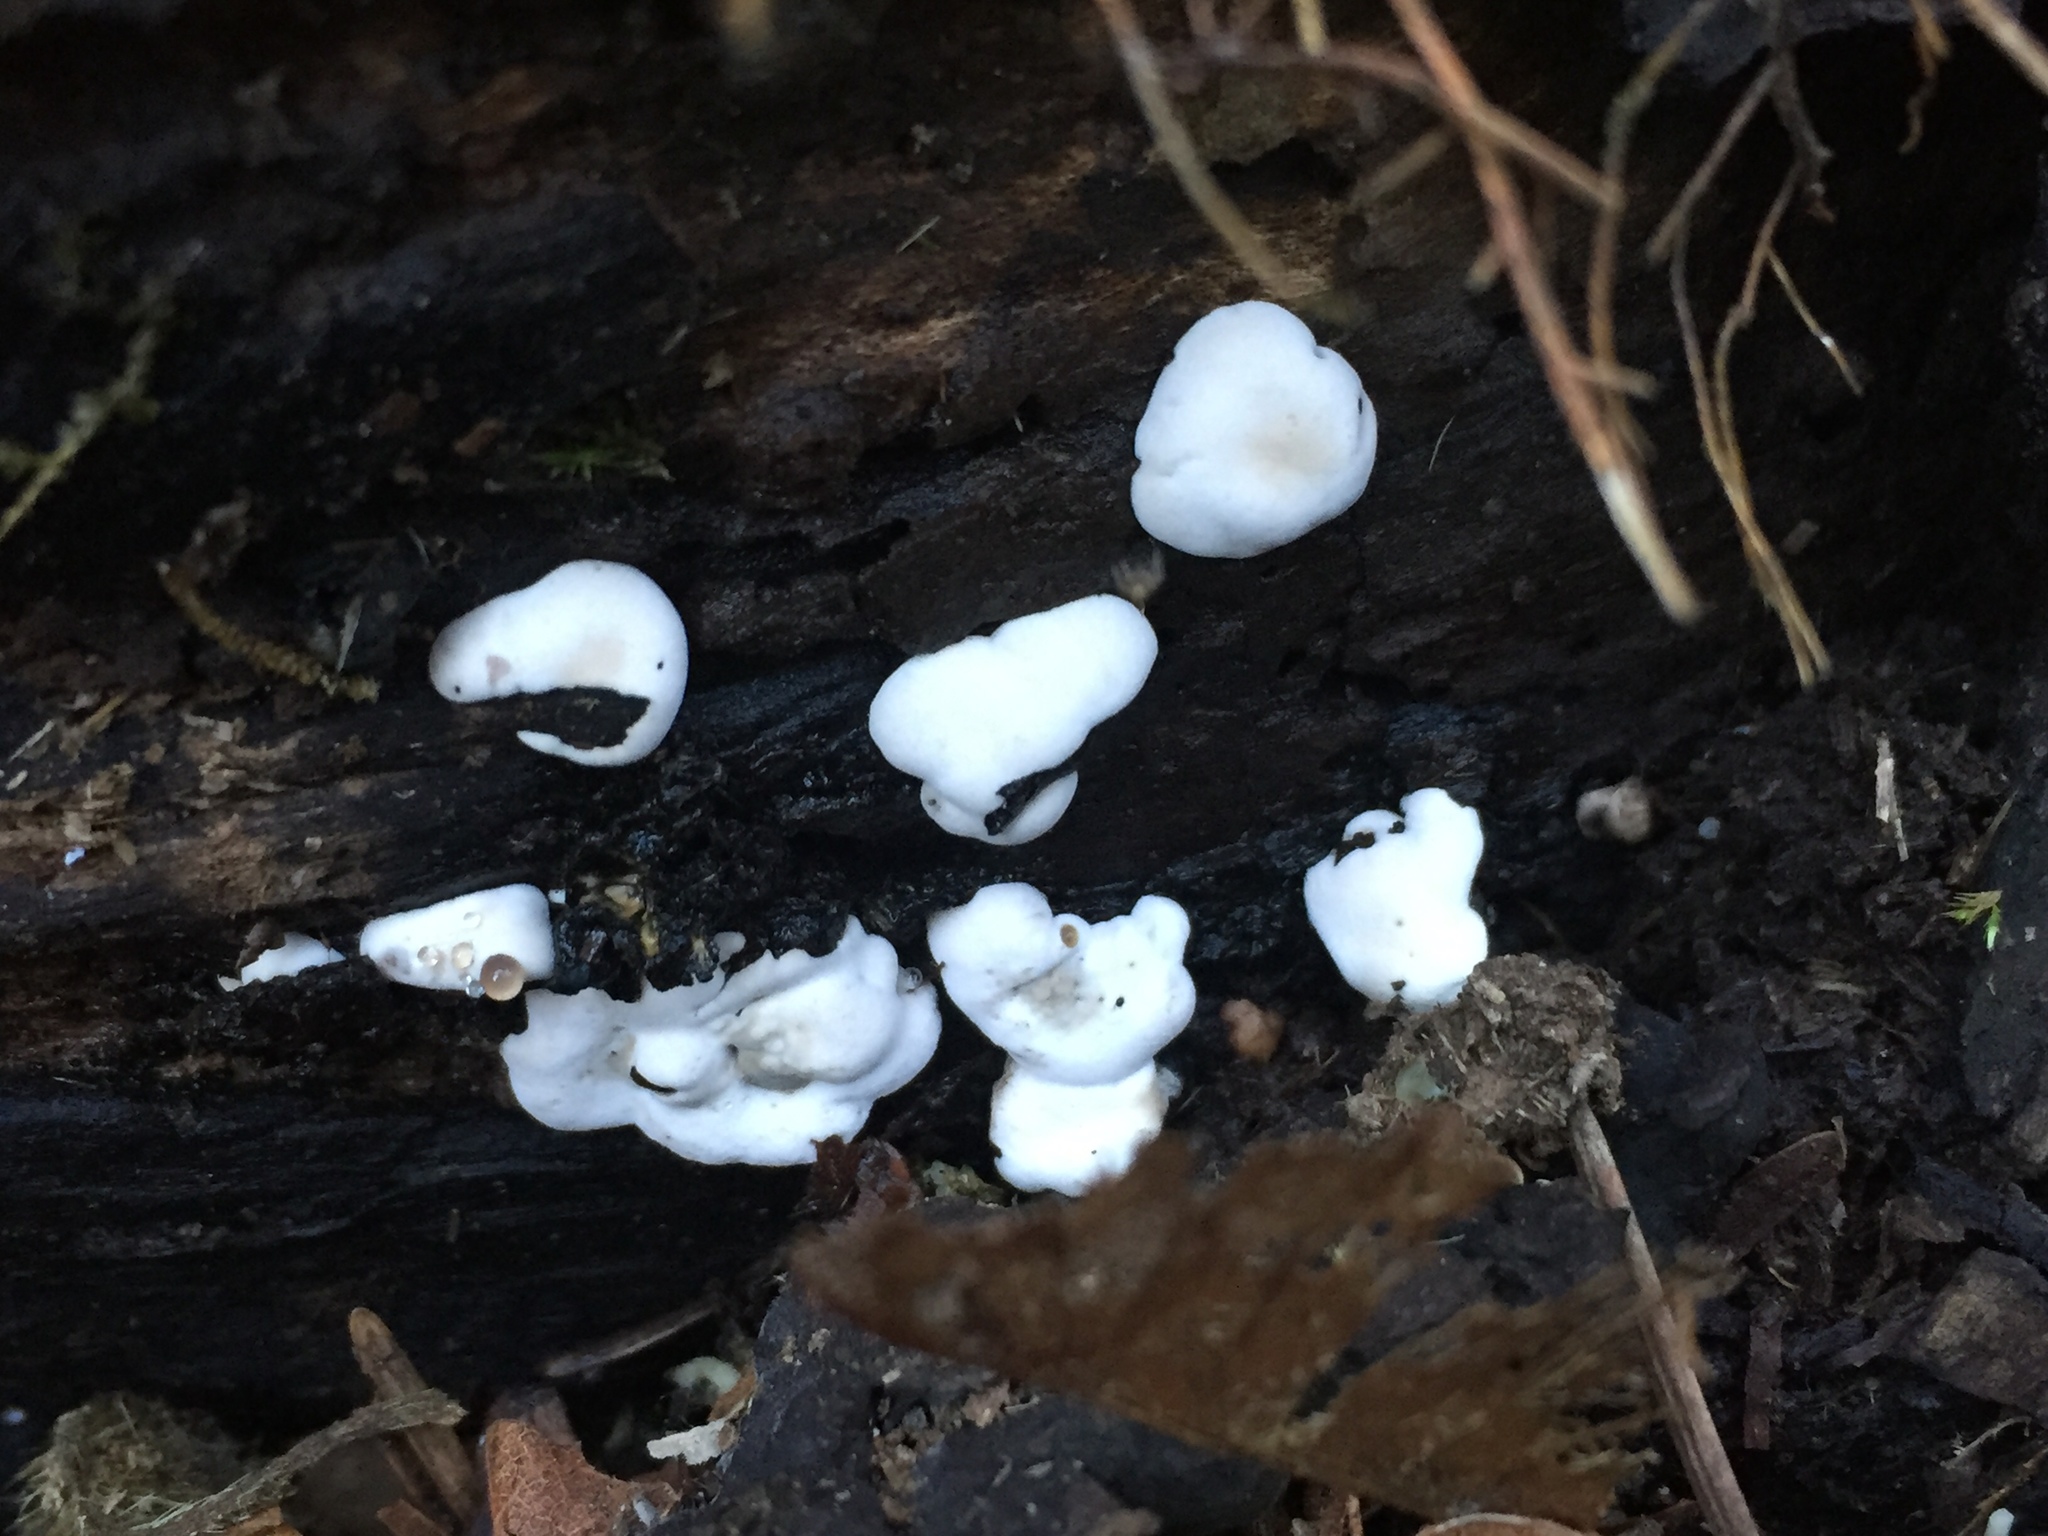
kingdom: Fungi
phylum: Ascomycota
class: Sordariomycetes
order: Xylariales
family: Xylariaceae
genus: Kretzschmaria
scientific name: Kretzschmaria deusta
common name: Brittle cinder
